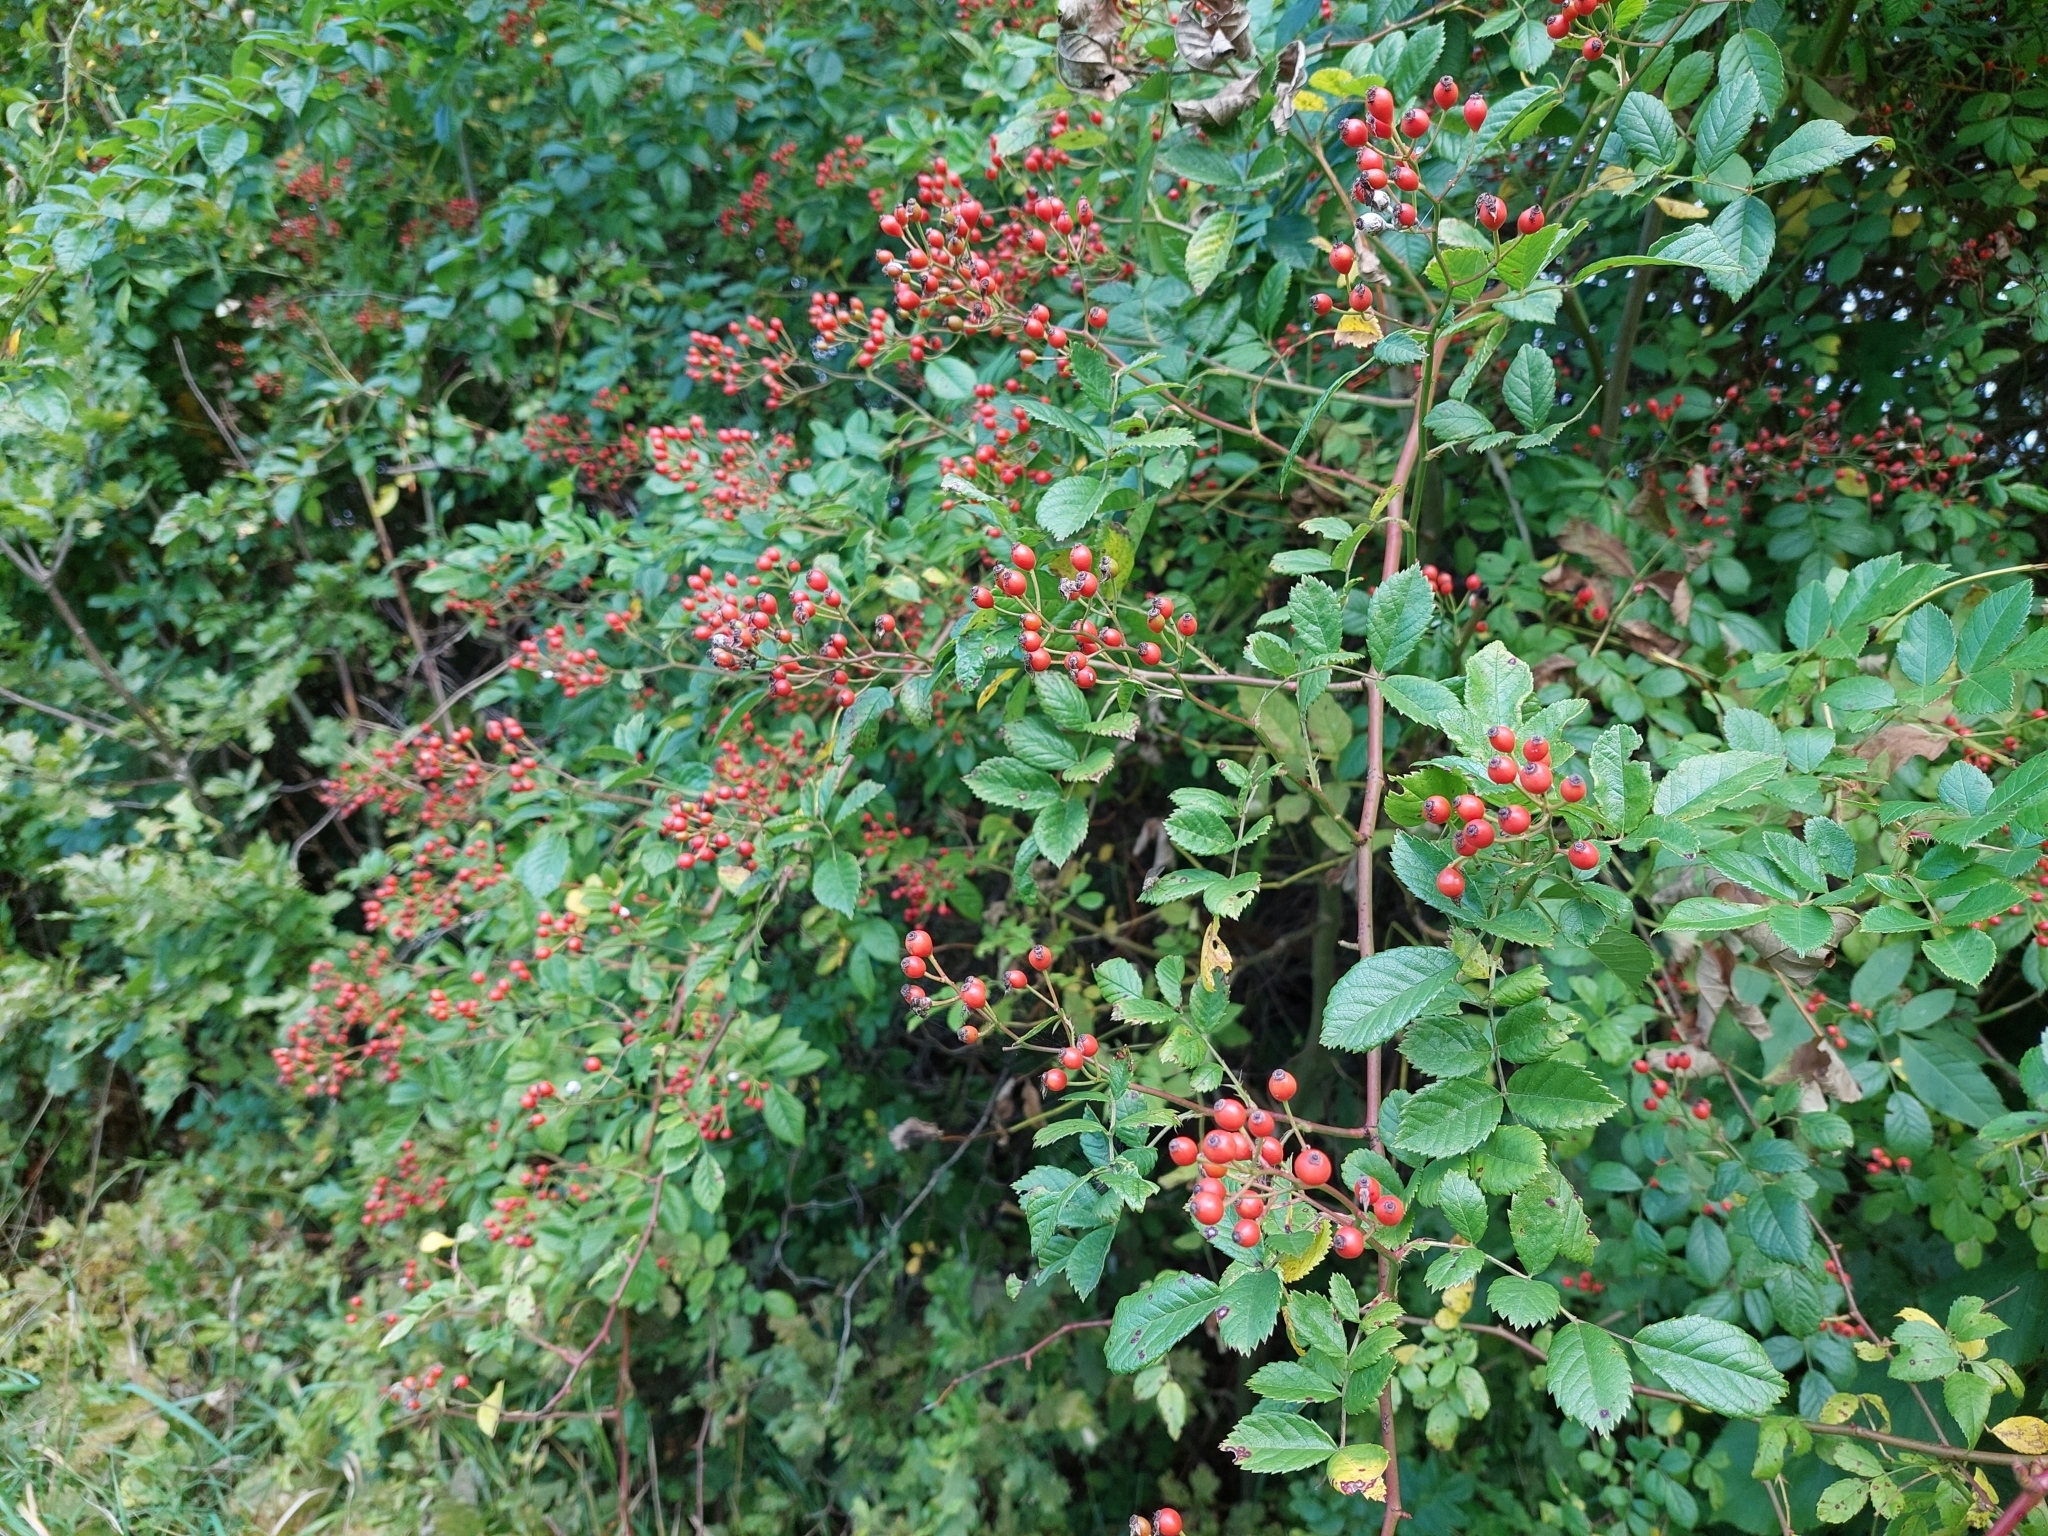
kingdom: Plantae
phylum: Tracheophyta
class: Magnoliopsida
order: Rosales
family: Rosaceae
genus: Rosa
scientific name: Rosa multiflora
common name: Multiflora rose
